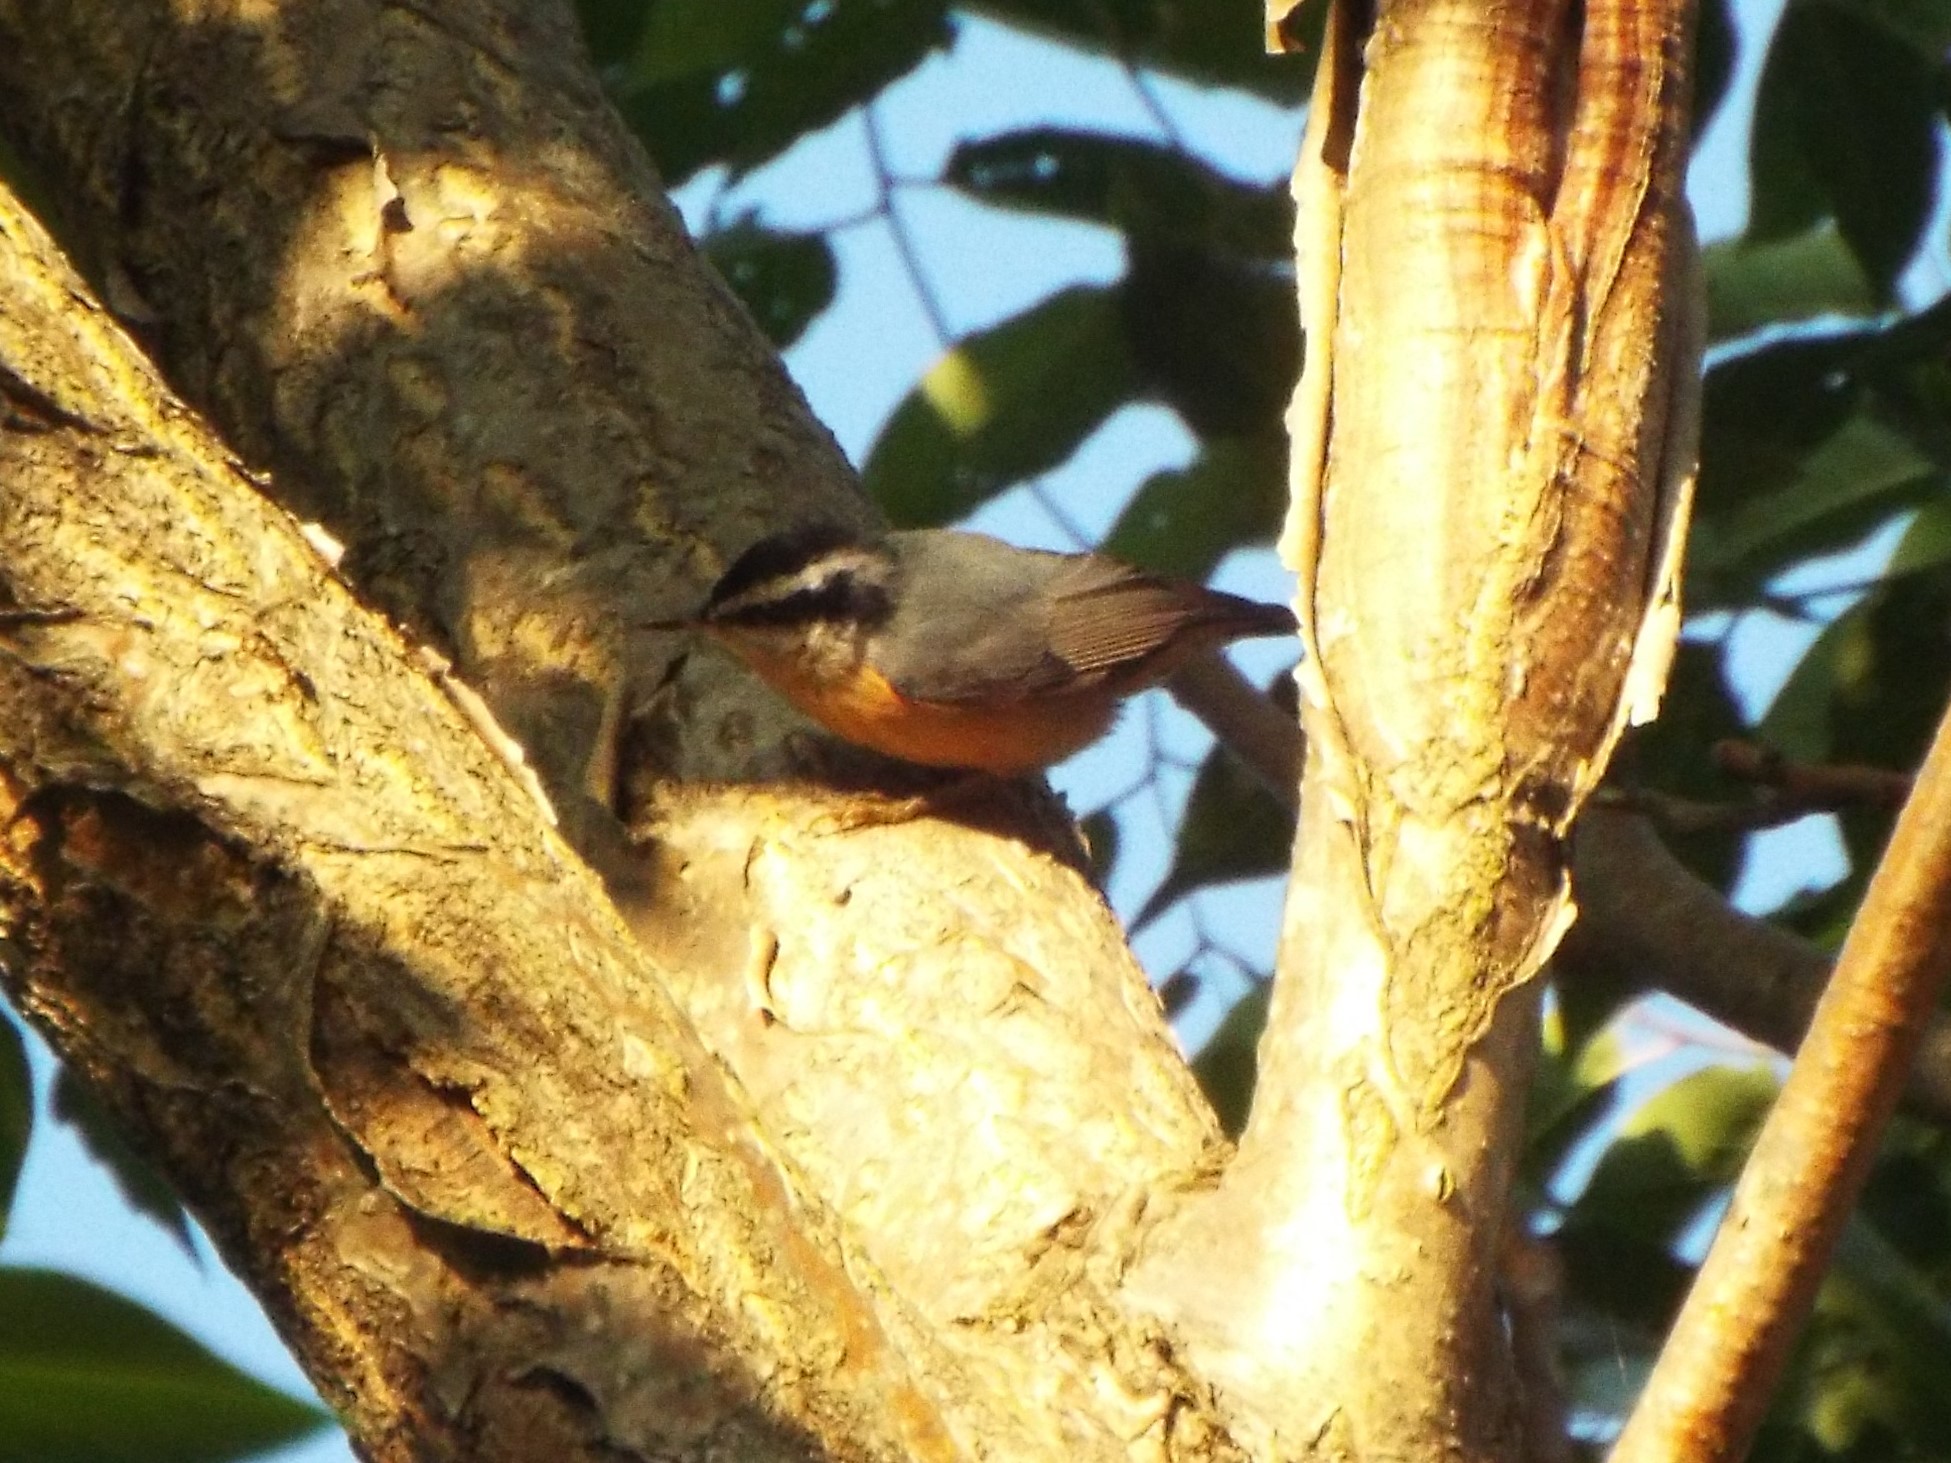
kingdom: Animalia
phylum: Chordata
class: Aves
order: Passeriformes
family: Sittidae
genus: Sitta
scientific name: Sitta canadensis
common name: Red-breasted nuthatch
